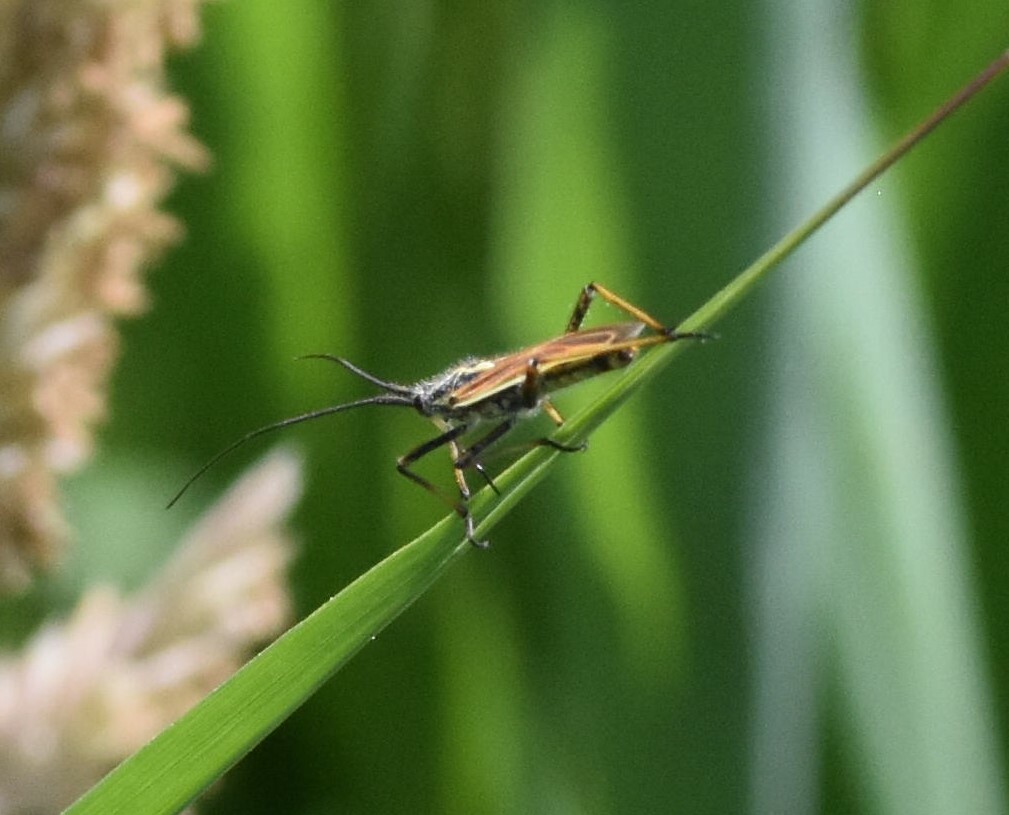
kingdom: Animalia
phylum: Arthropoda
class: Insecta
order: Hemiptera
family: Miridae
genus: Leptopterna
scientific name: Leptopterna dolabrata
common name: Meadow plant bug
